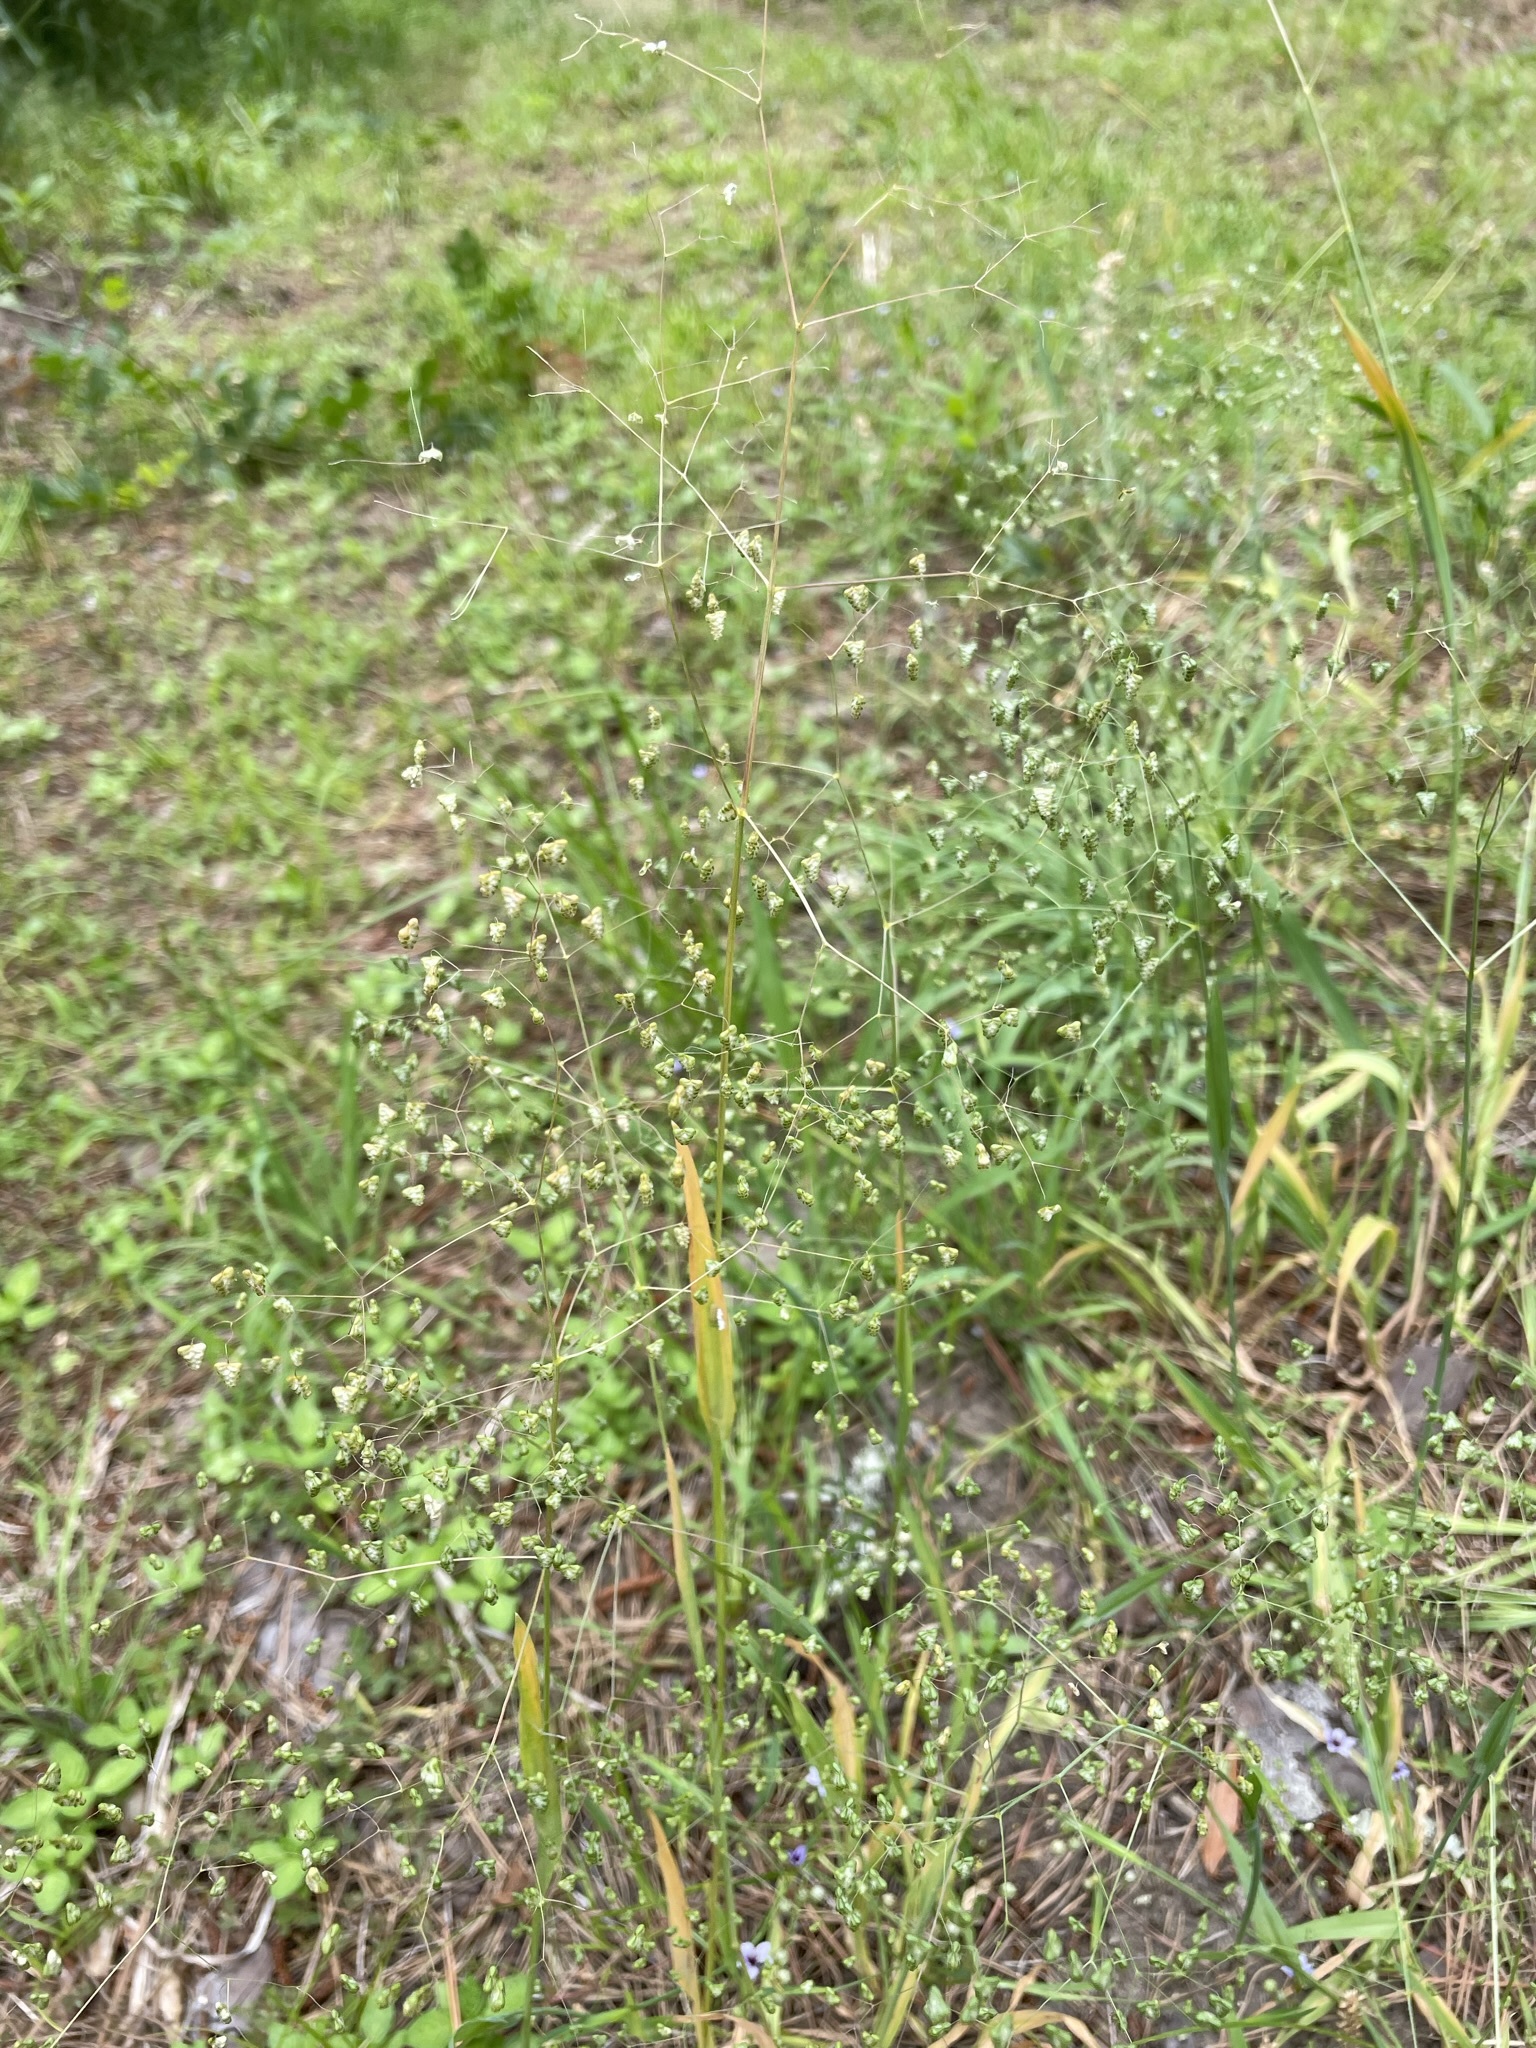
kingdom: Plantae
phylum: Tracheophyta
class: Liliopsida
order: Poales
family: Poaceae
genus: Briza
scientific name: Briza minor
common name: Lesser quaking-grass
